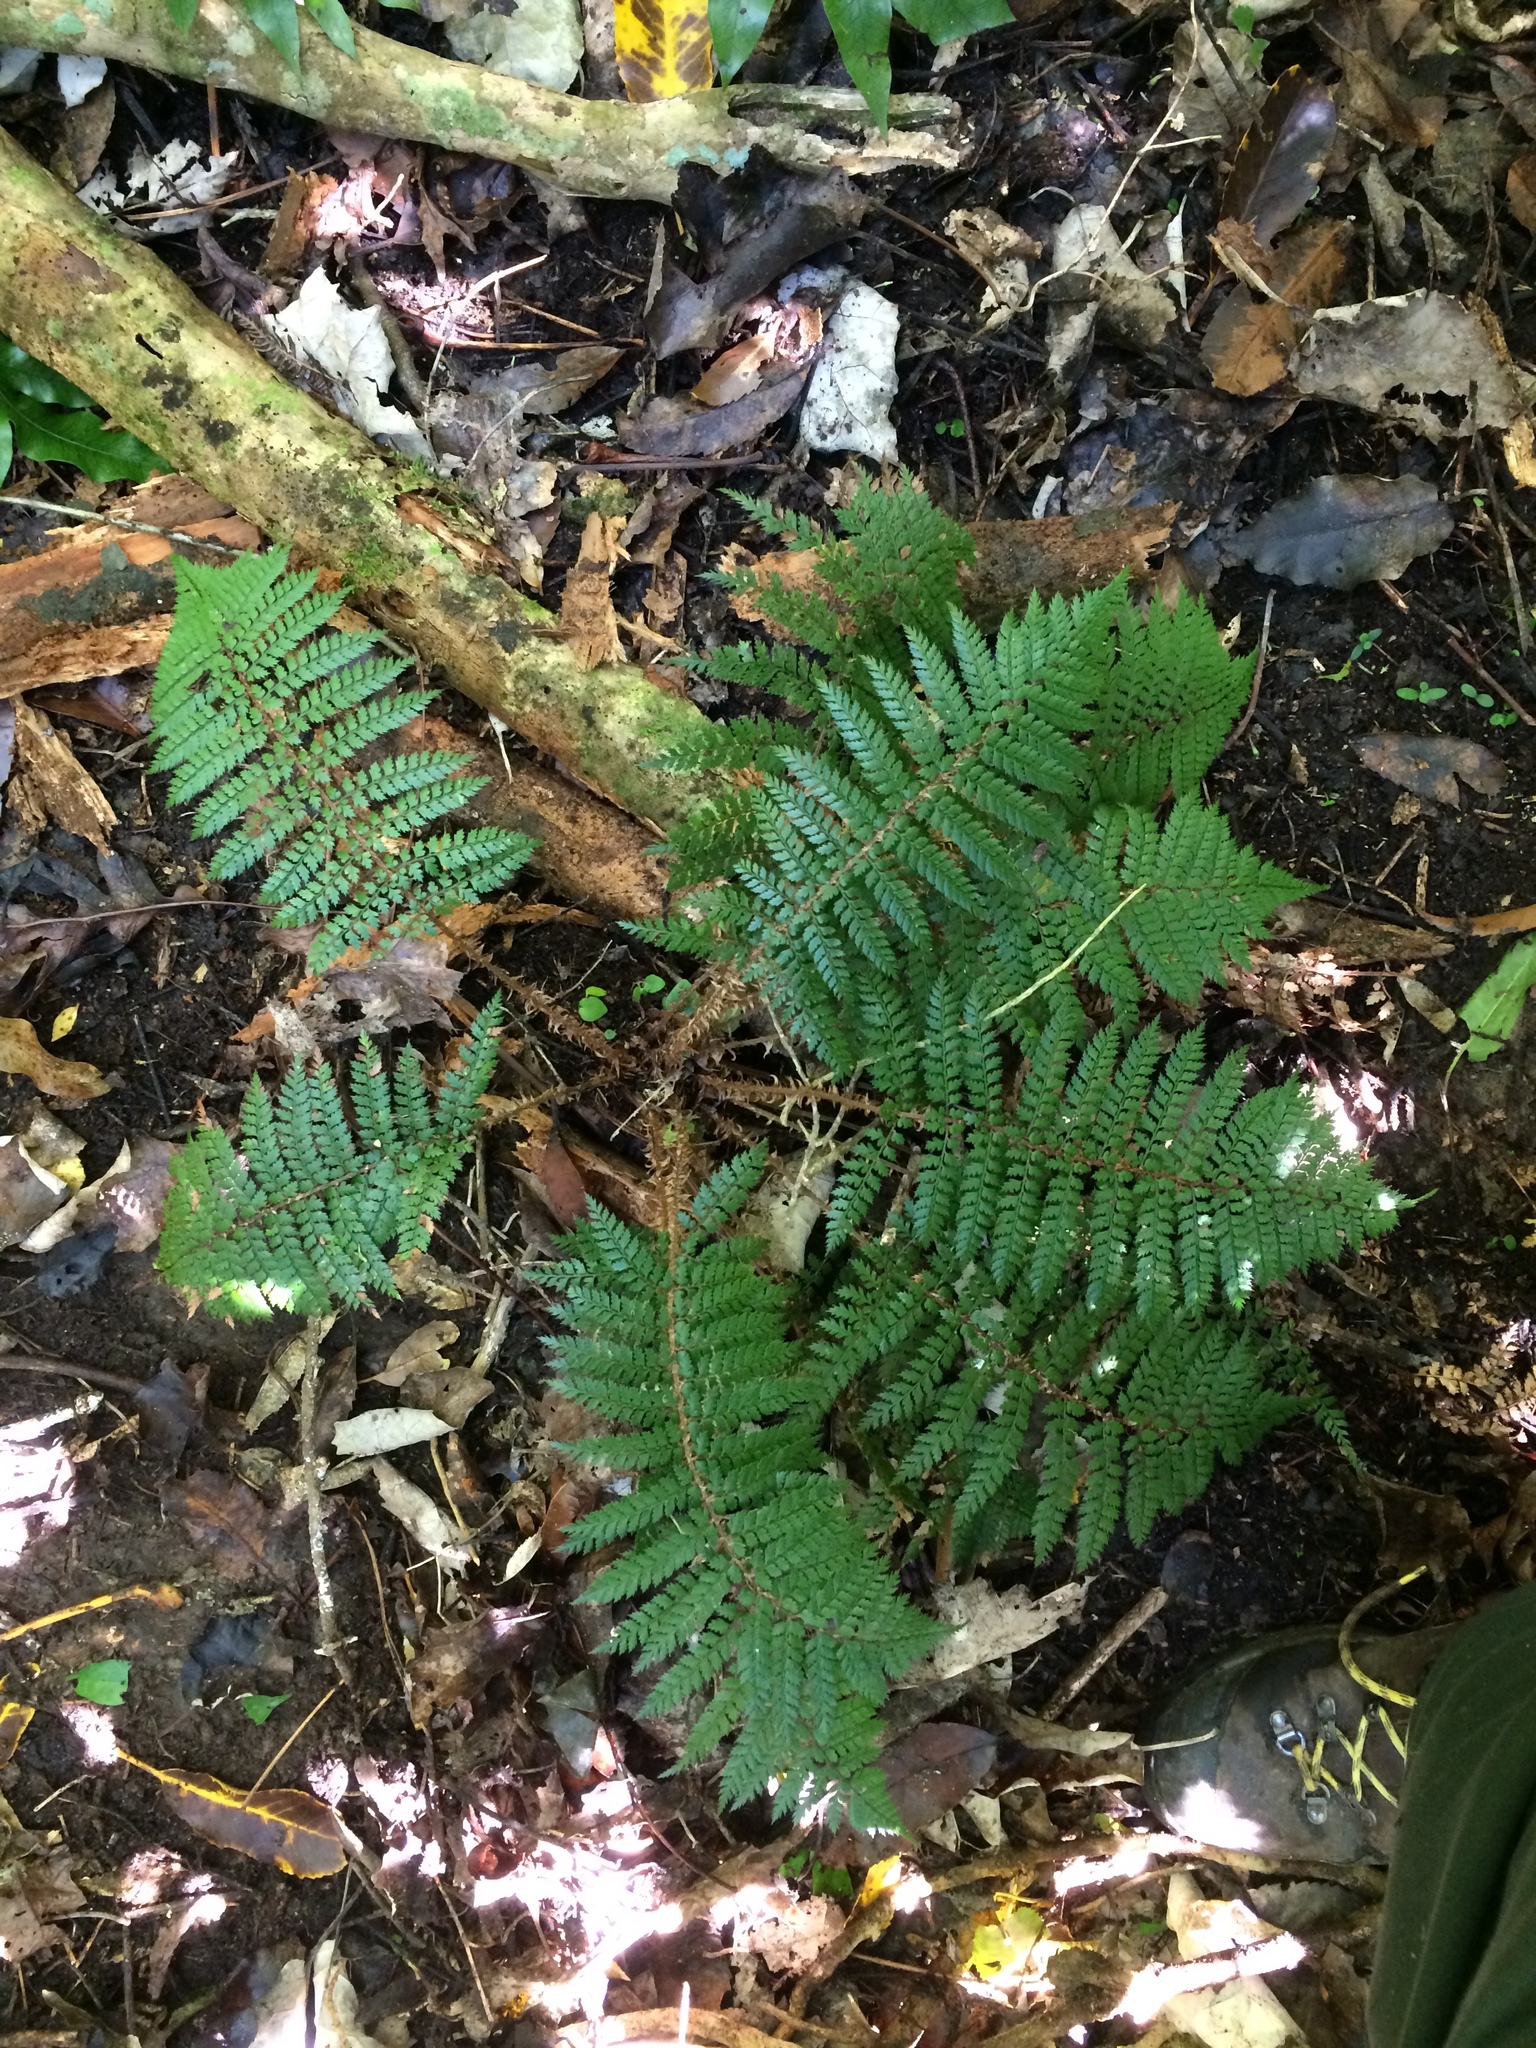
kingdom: Plantae
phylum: Tracheophyta
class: Polypodiopsida
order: Polypodiales
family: Dryopteridaceae
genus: Polystichum
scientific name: Polystichum vestitum
